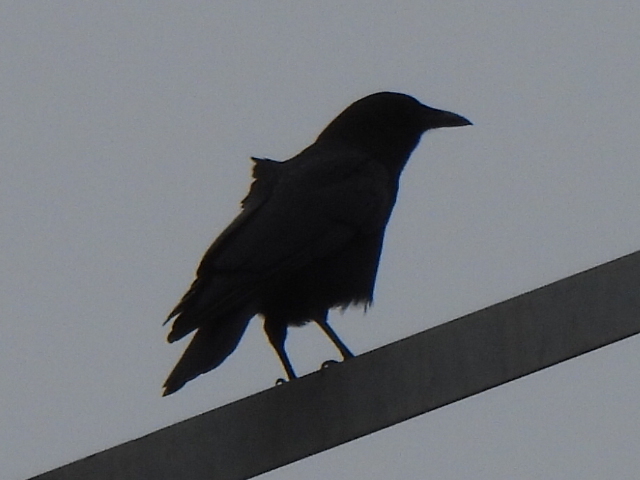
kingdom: Animalia
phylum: Chordata
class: Aves
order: Passeriformes
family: Corvidae
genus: Corvus
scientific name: Corvus brachyrhynchos
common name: American crow
